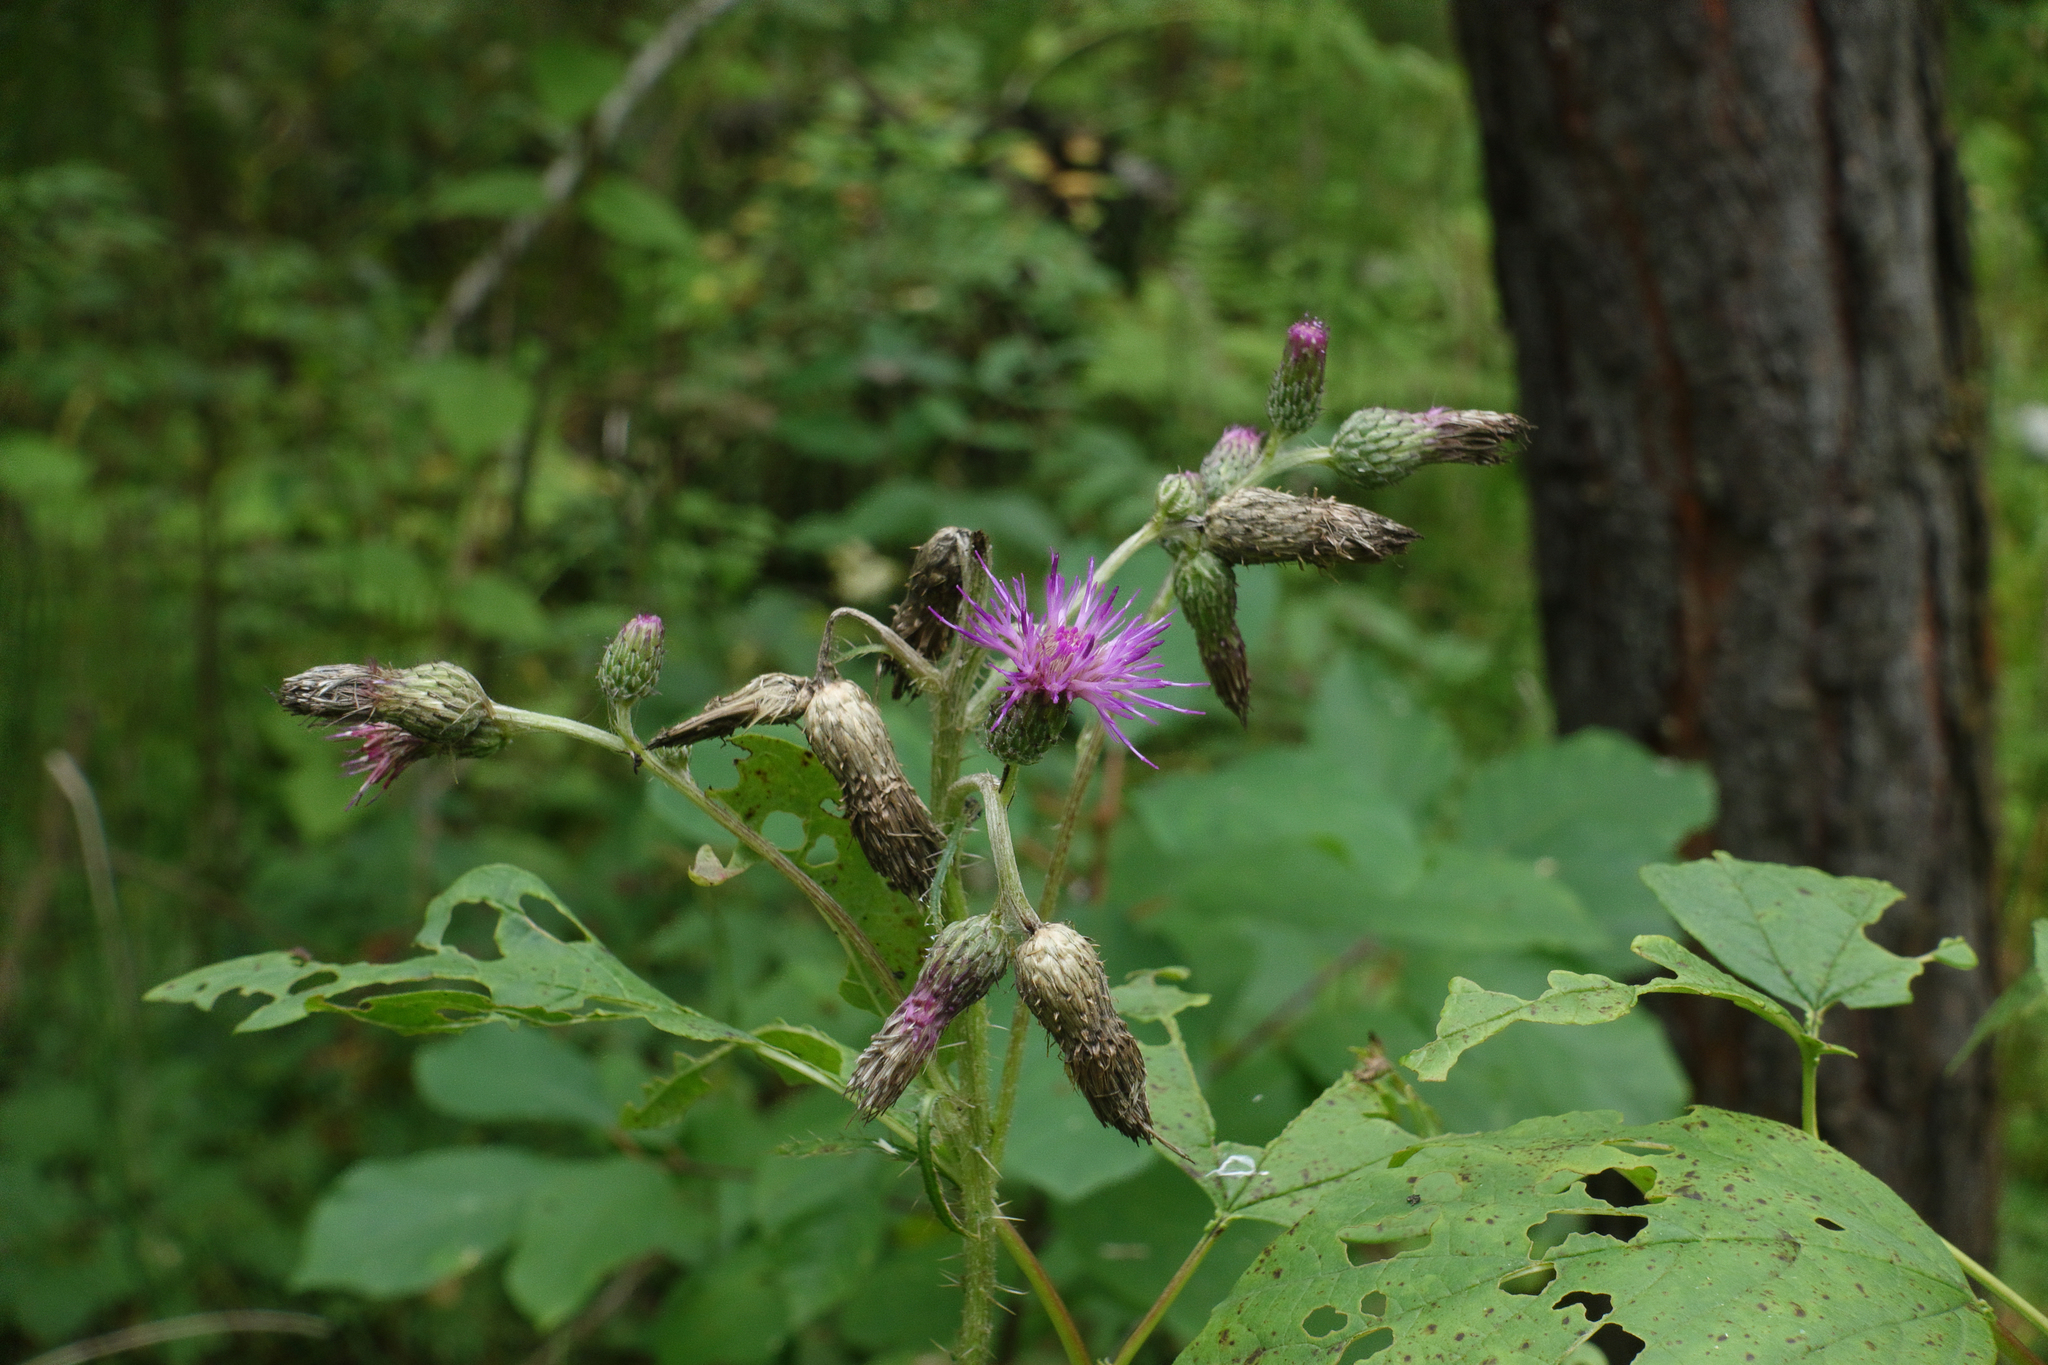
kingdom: Plantae
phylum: Tracheophyta
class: Magnoliopsida
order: Asterales
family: Asteraceae
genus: Cirsium
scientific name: Cirsium palustre
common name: Marsh thistle
